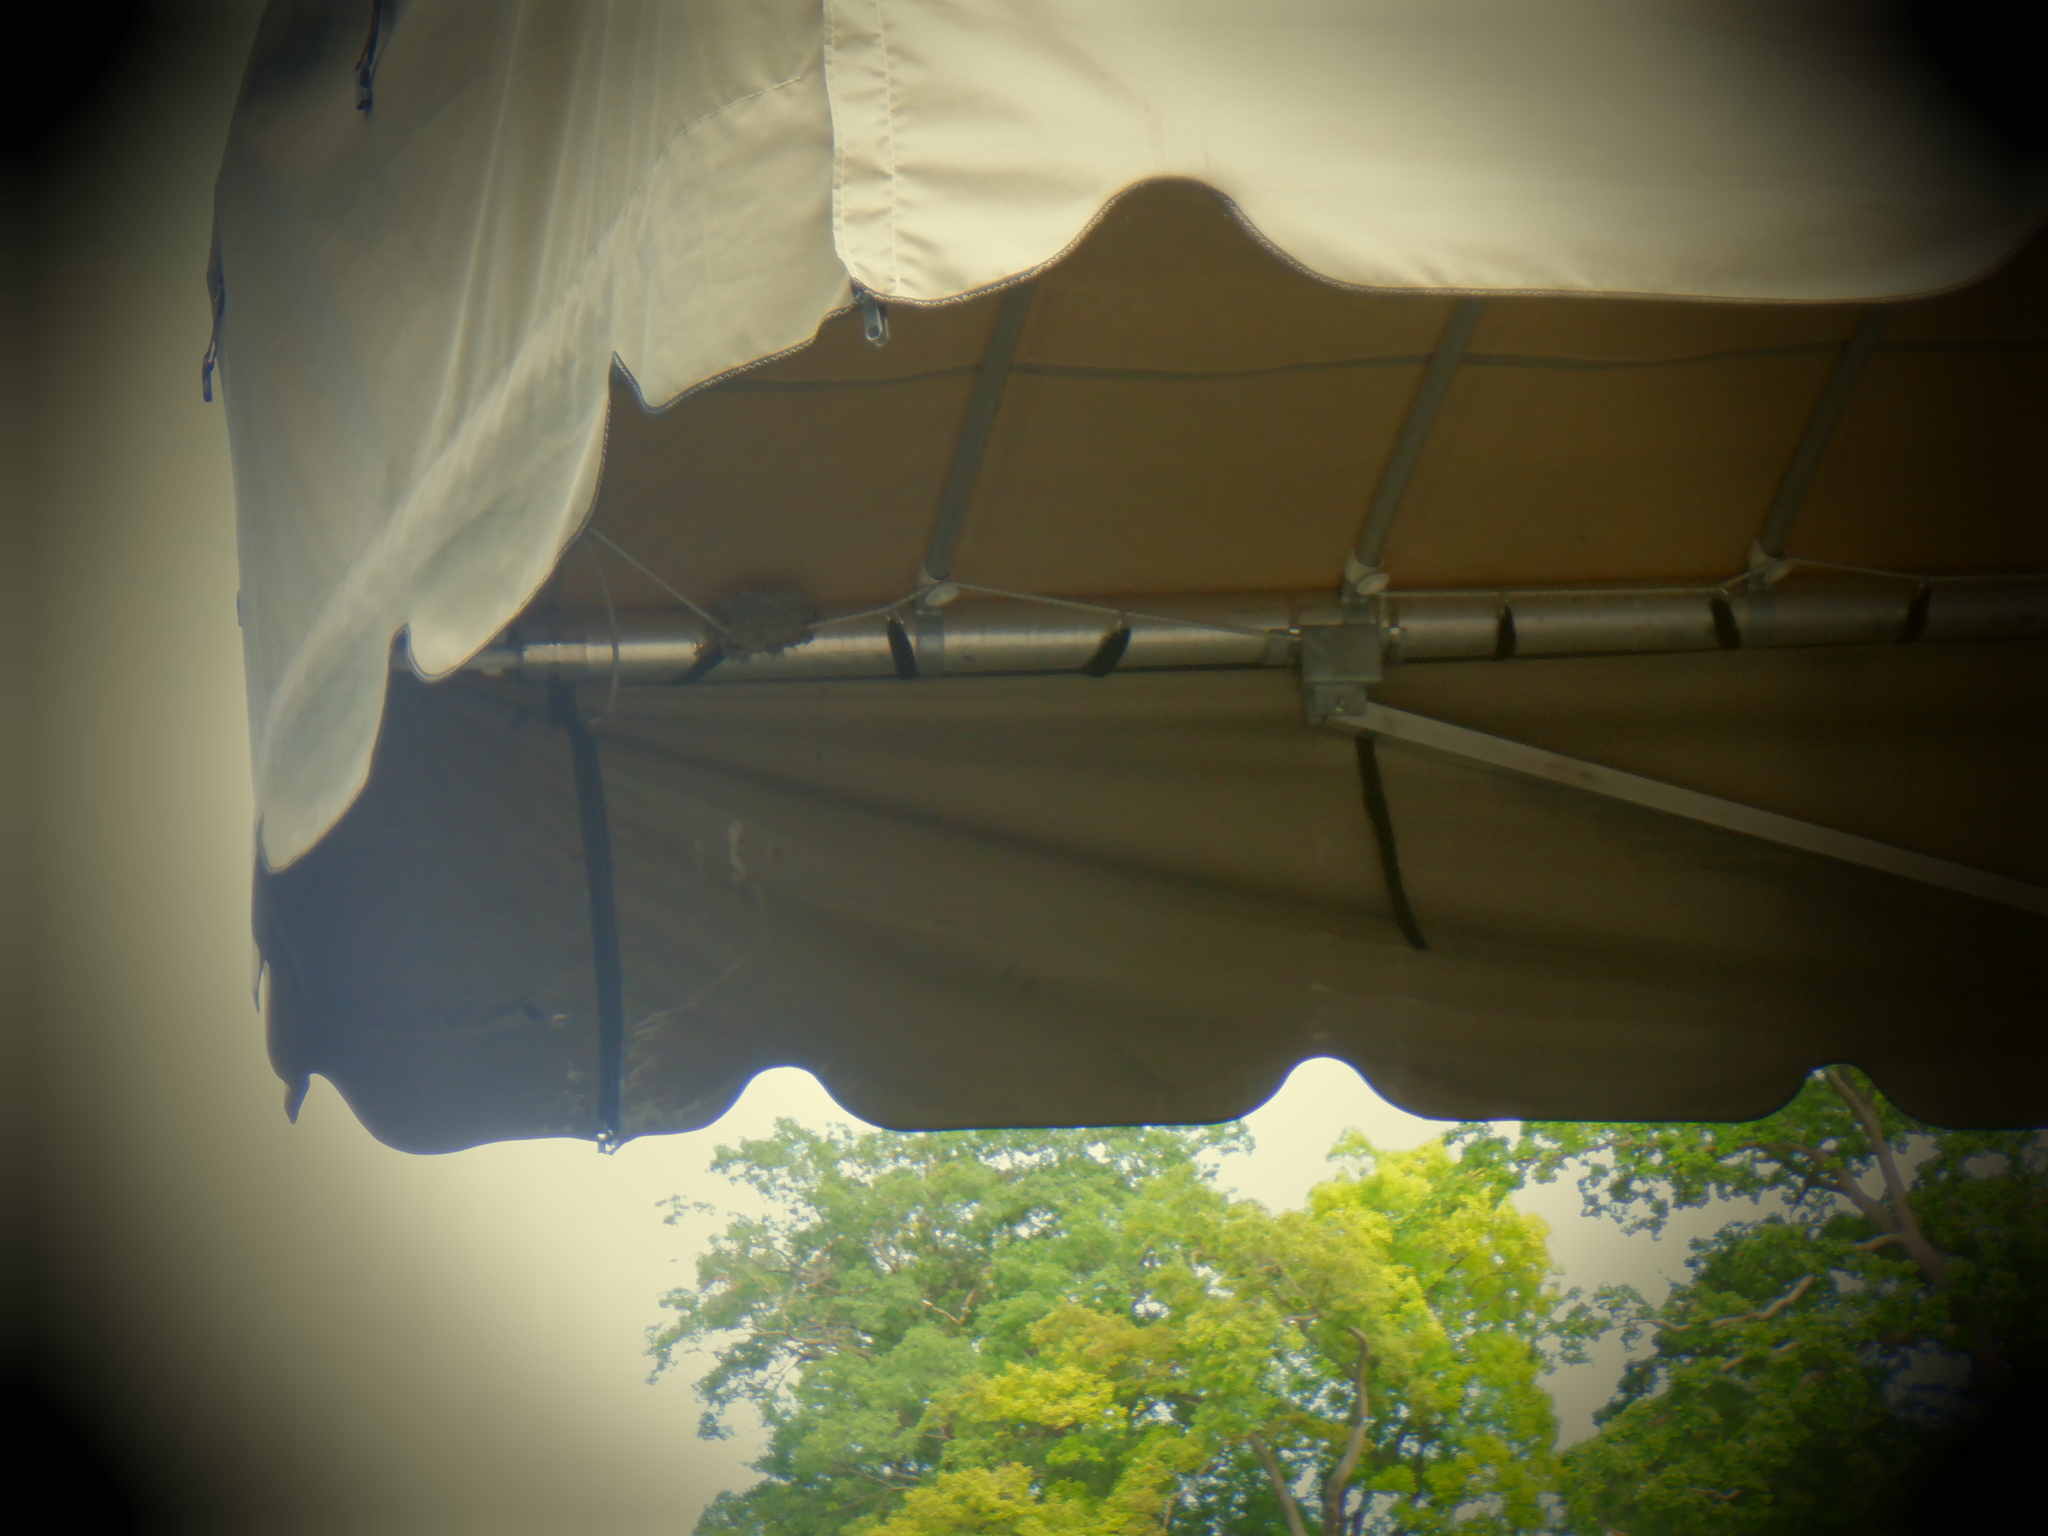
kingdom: Animalia
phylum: Chordata
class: Aves
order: Passeriformes
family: Hirundinidae
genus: Hirundo
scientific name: Hirundo rustica
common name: Barn swallow
